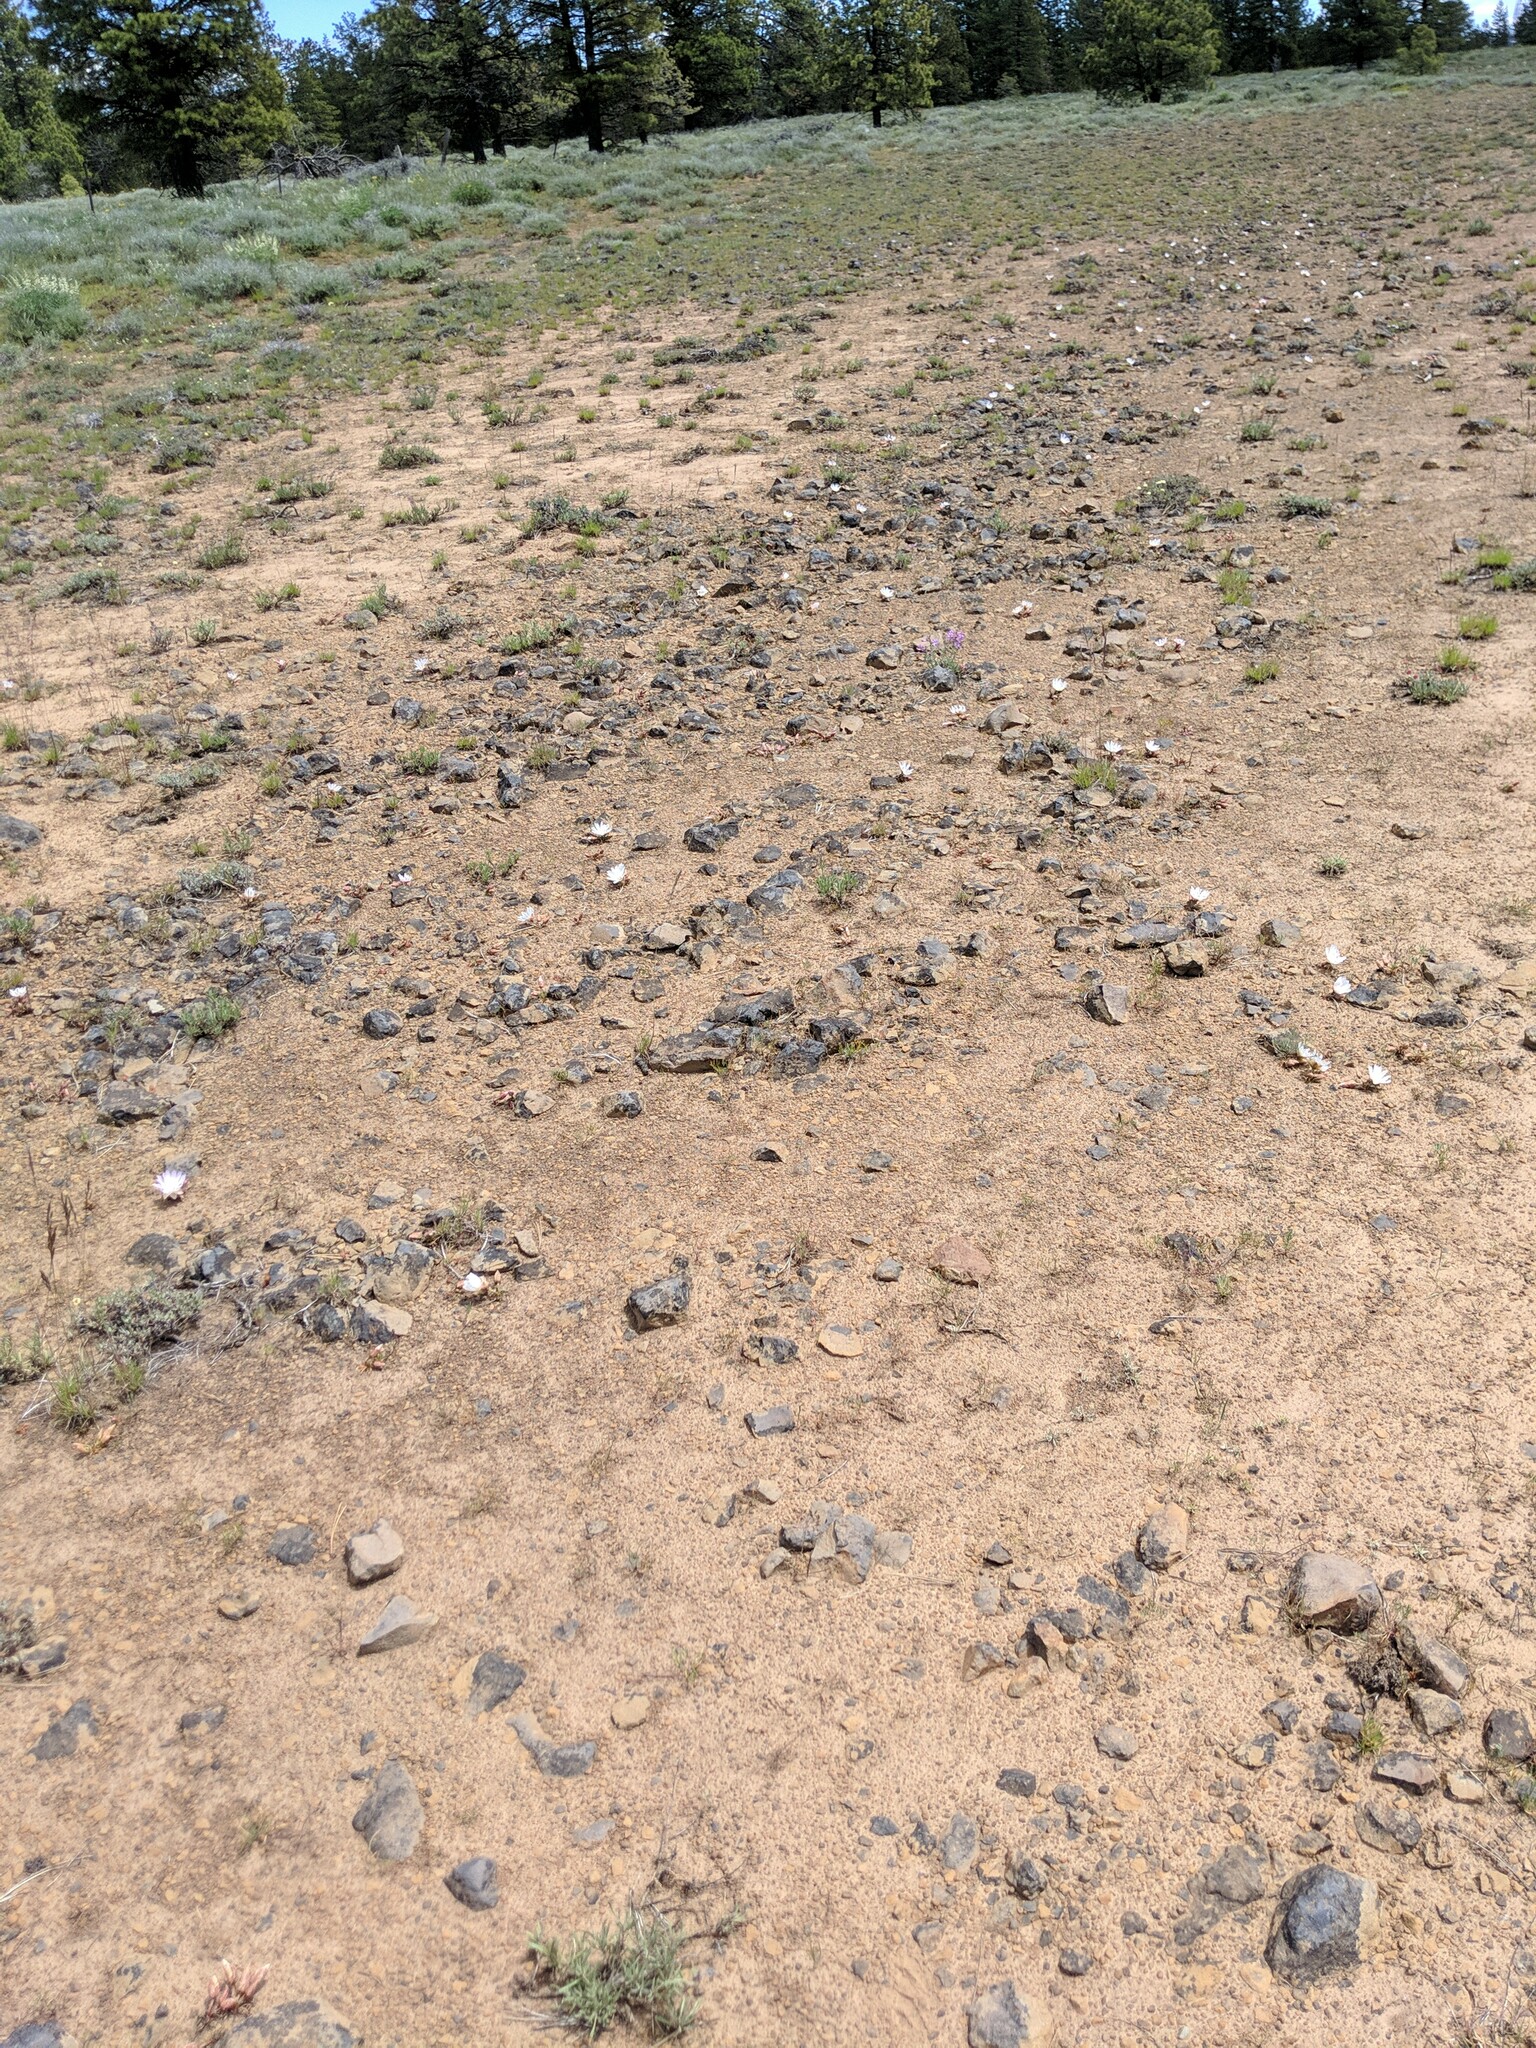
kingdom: Plantae
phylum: Tracheophyta
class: Magnoliopsida
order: Caryophyllales
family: Montiaceae
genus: Lewisia
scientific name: Lewisia rediviva
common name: Bitter-root
